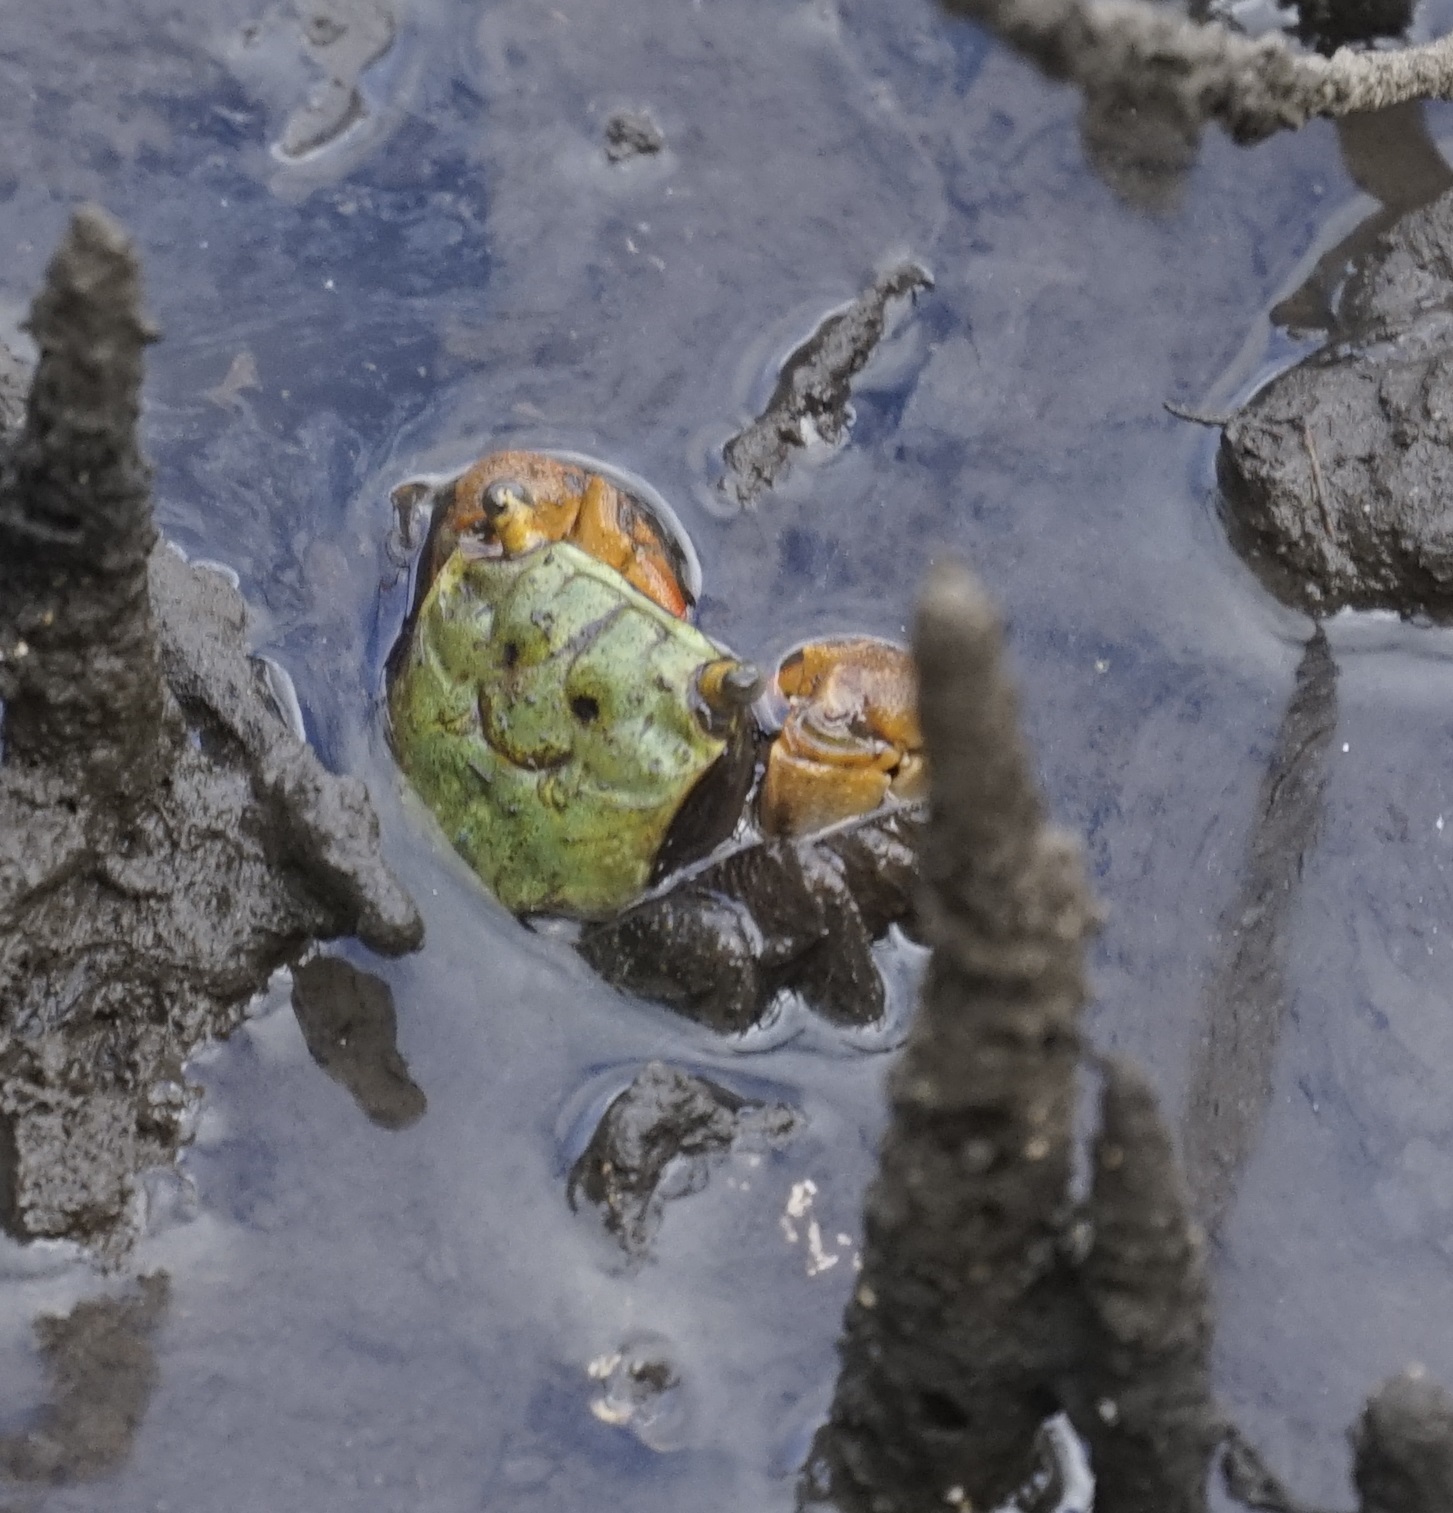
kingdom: Animalia
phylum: Arthropoda
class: Malacostraca
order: Decapoda
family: Sesarmidae
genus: Parasesarma
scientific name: Parasesarma erythodactylum
